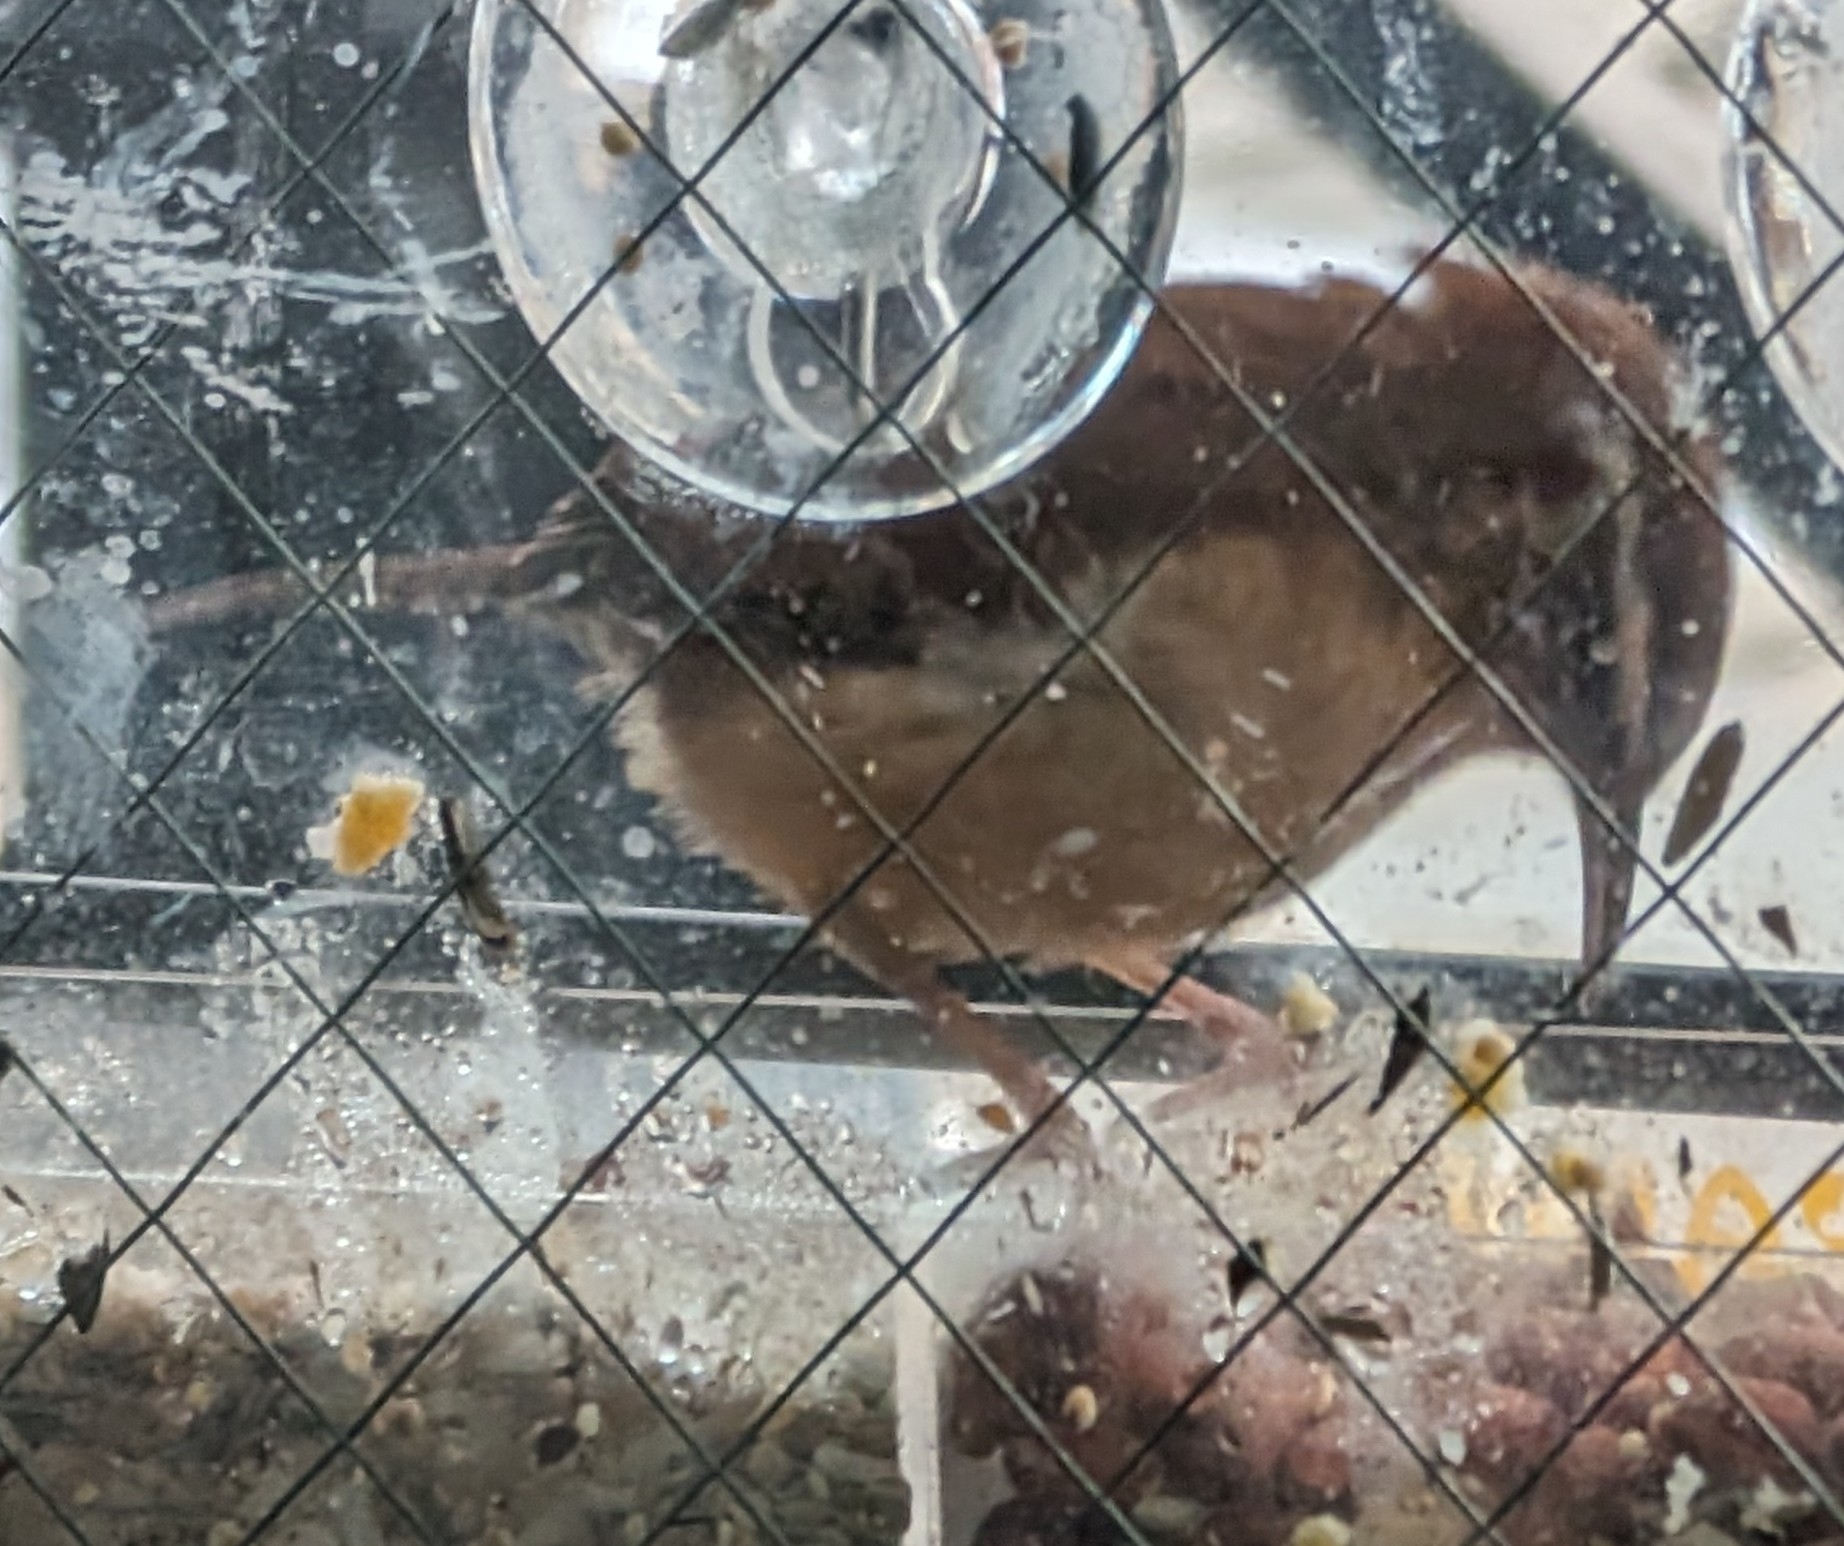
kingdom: Animalia
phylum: Chordata
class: Aves
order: Passeriformes
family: Troglodytidae
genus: Thryothorus
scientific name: Thryothorus ludovicianus
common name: Carolina wren
